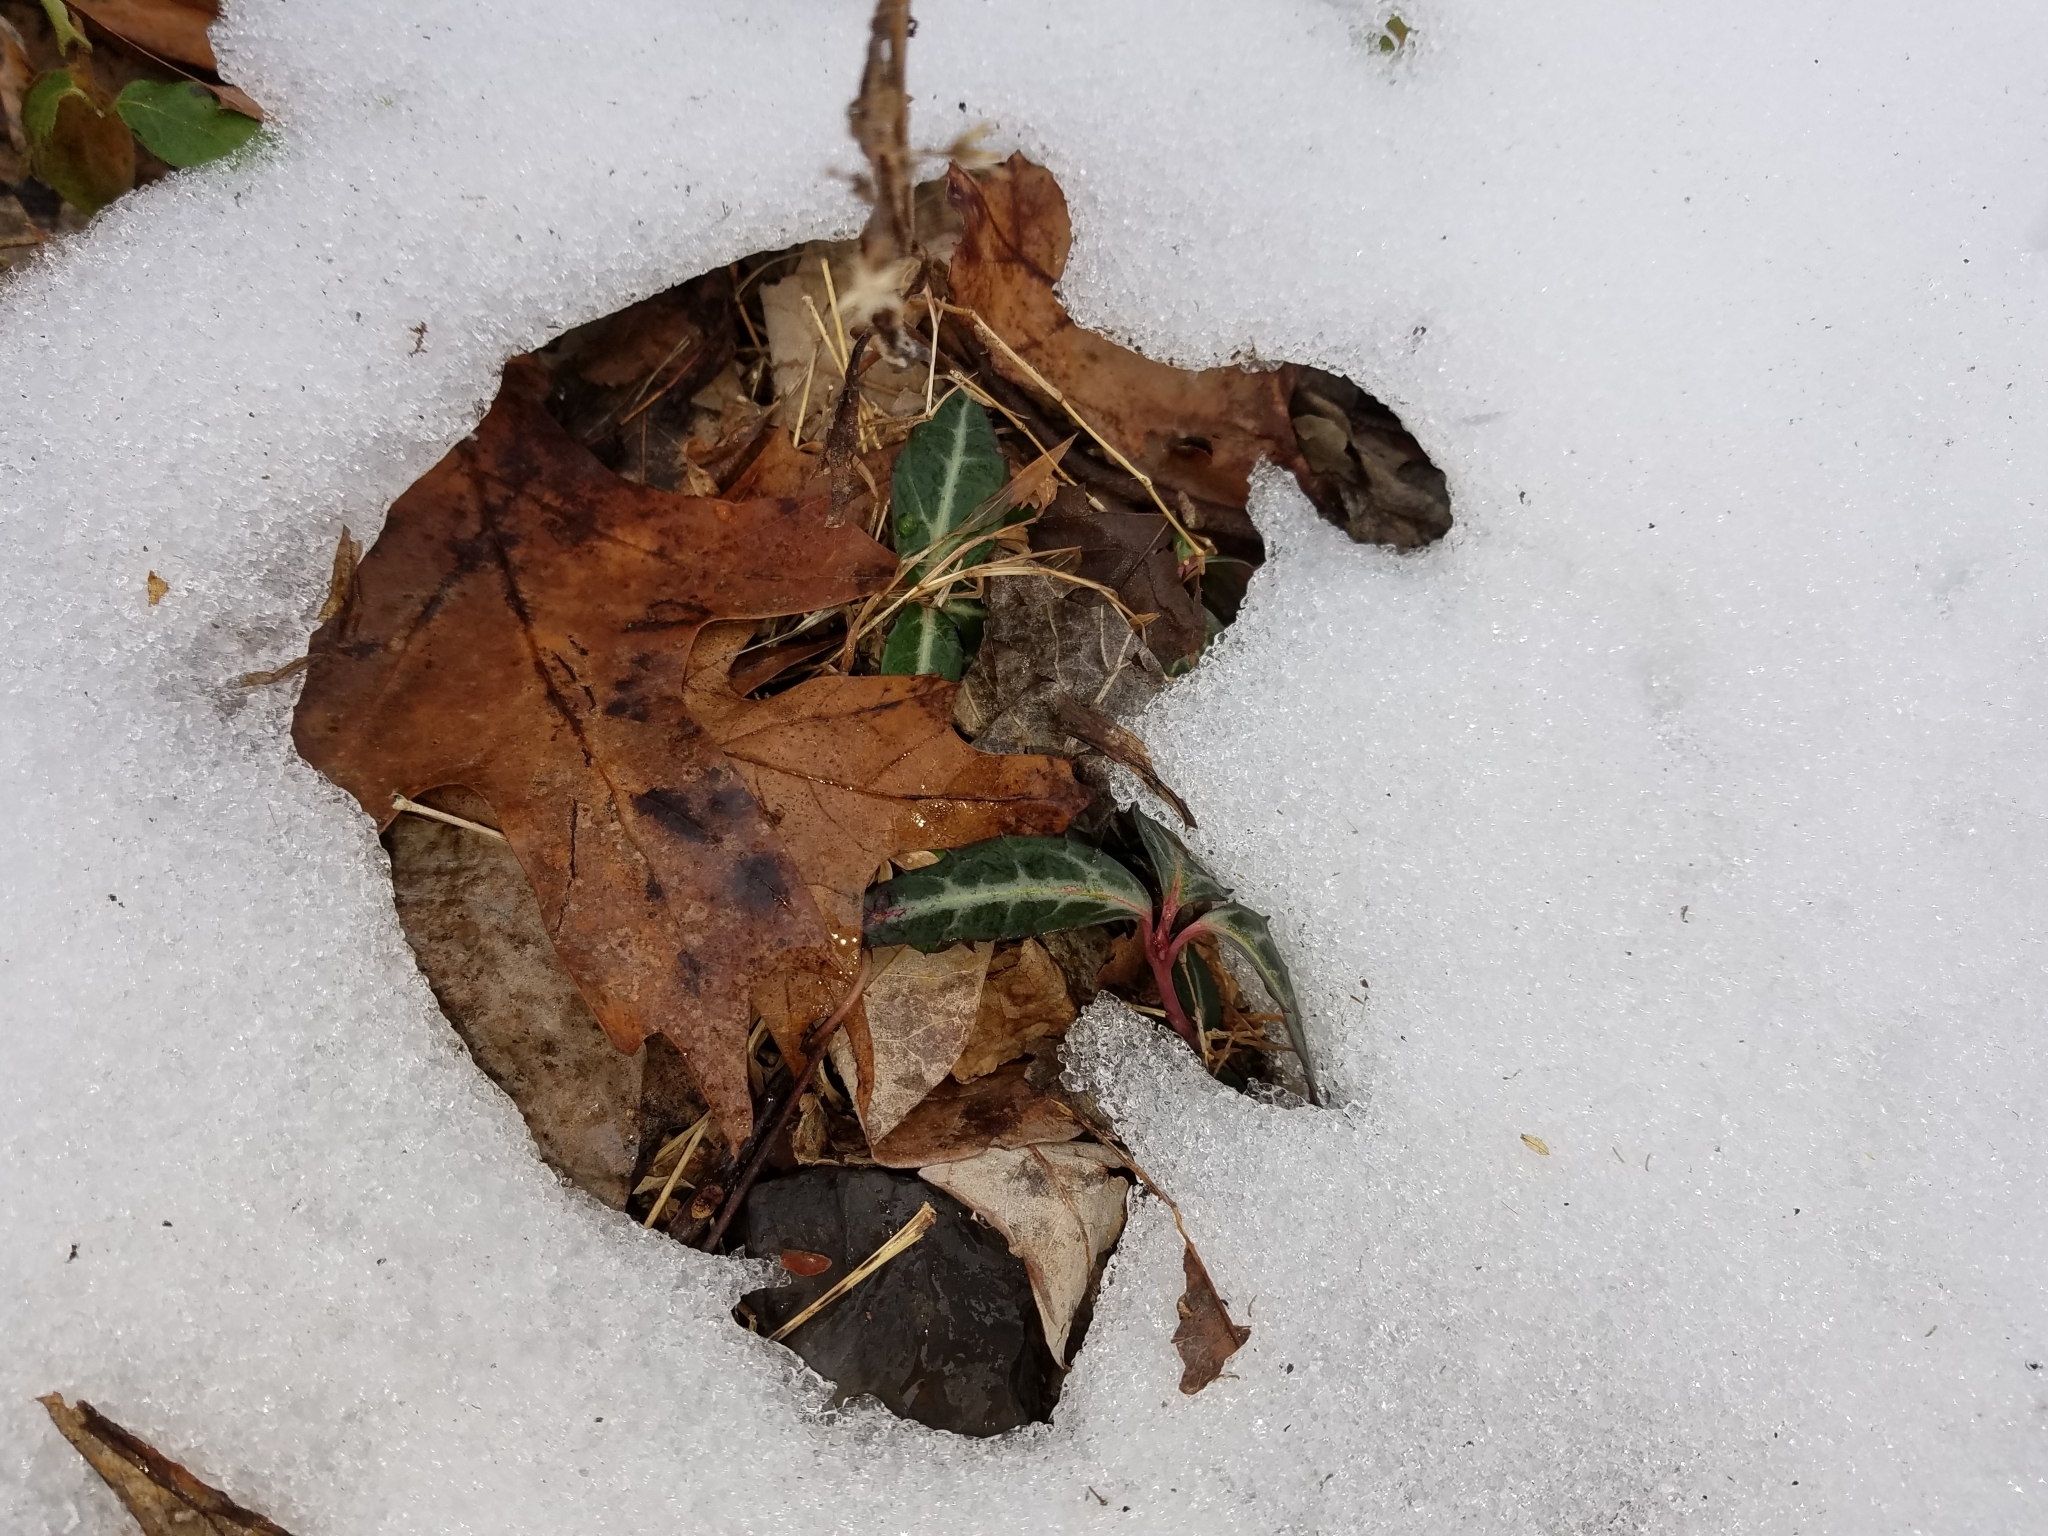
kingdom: Plantae
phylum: Tracheophyta
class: Magnoliopsida
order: Ericales
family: Ericaceae
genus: Chimaphila
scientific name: Chimaphila maculata
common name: Spotted pipsissewa
